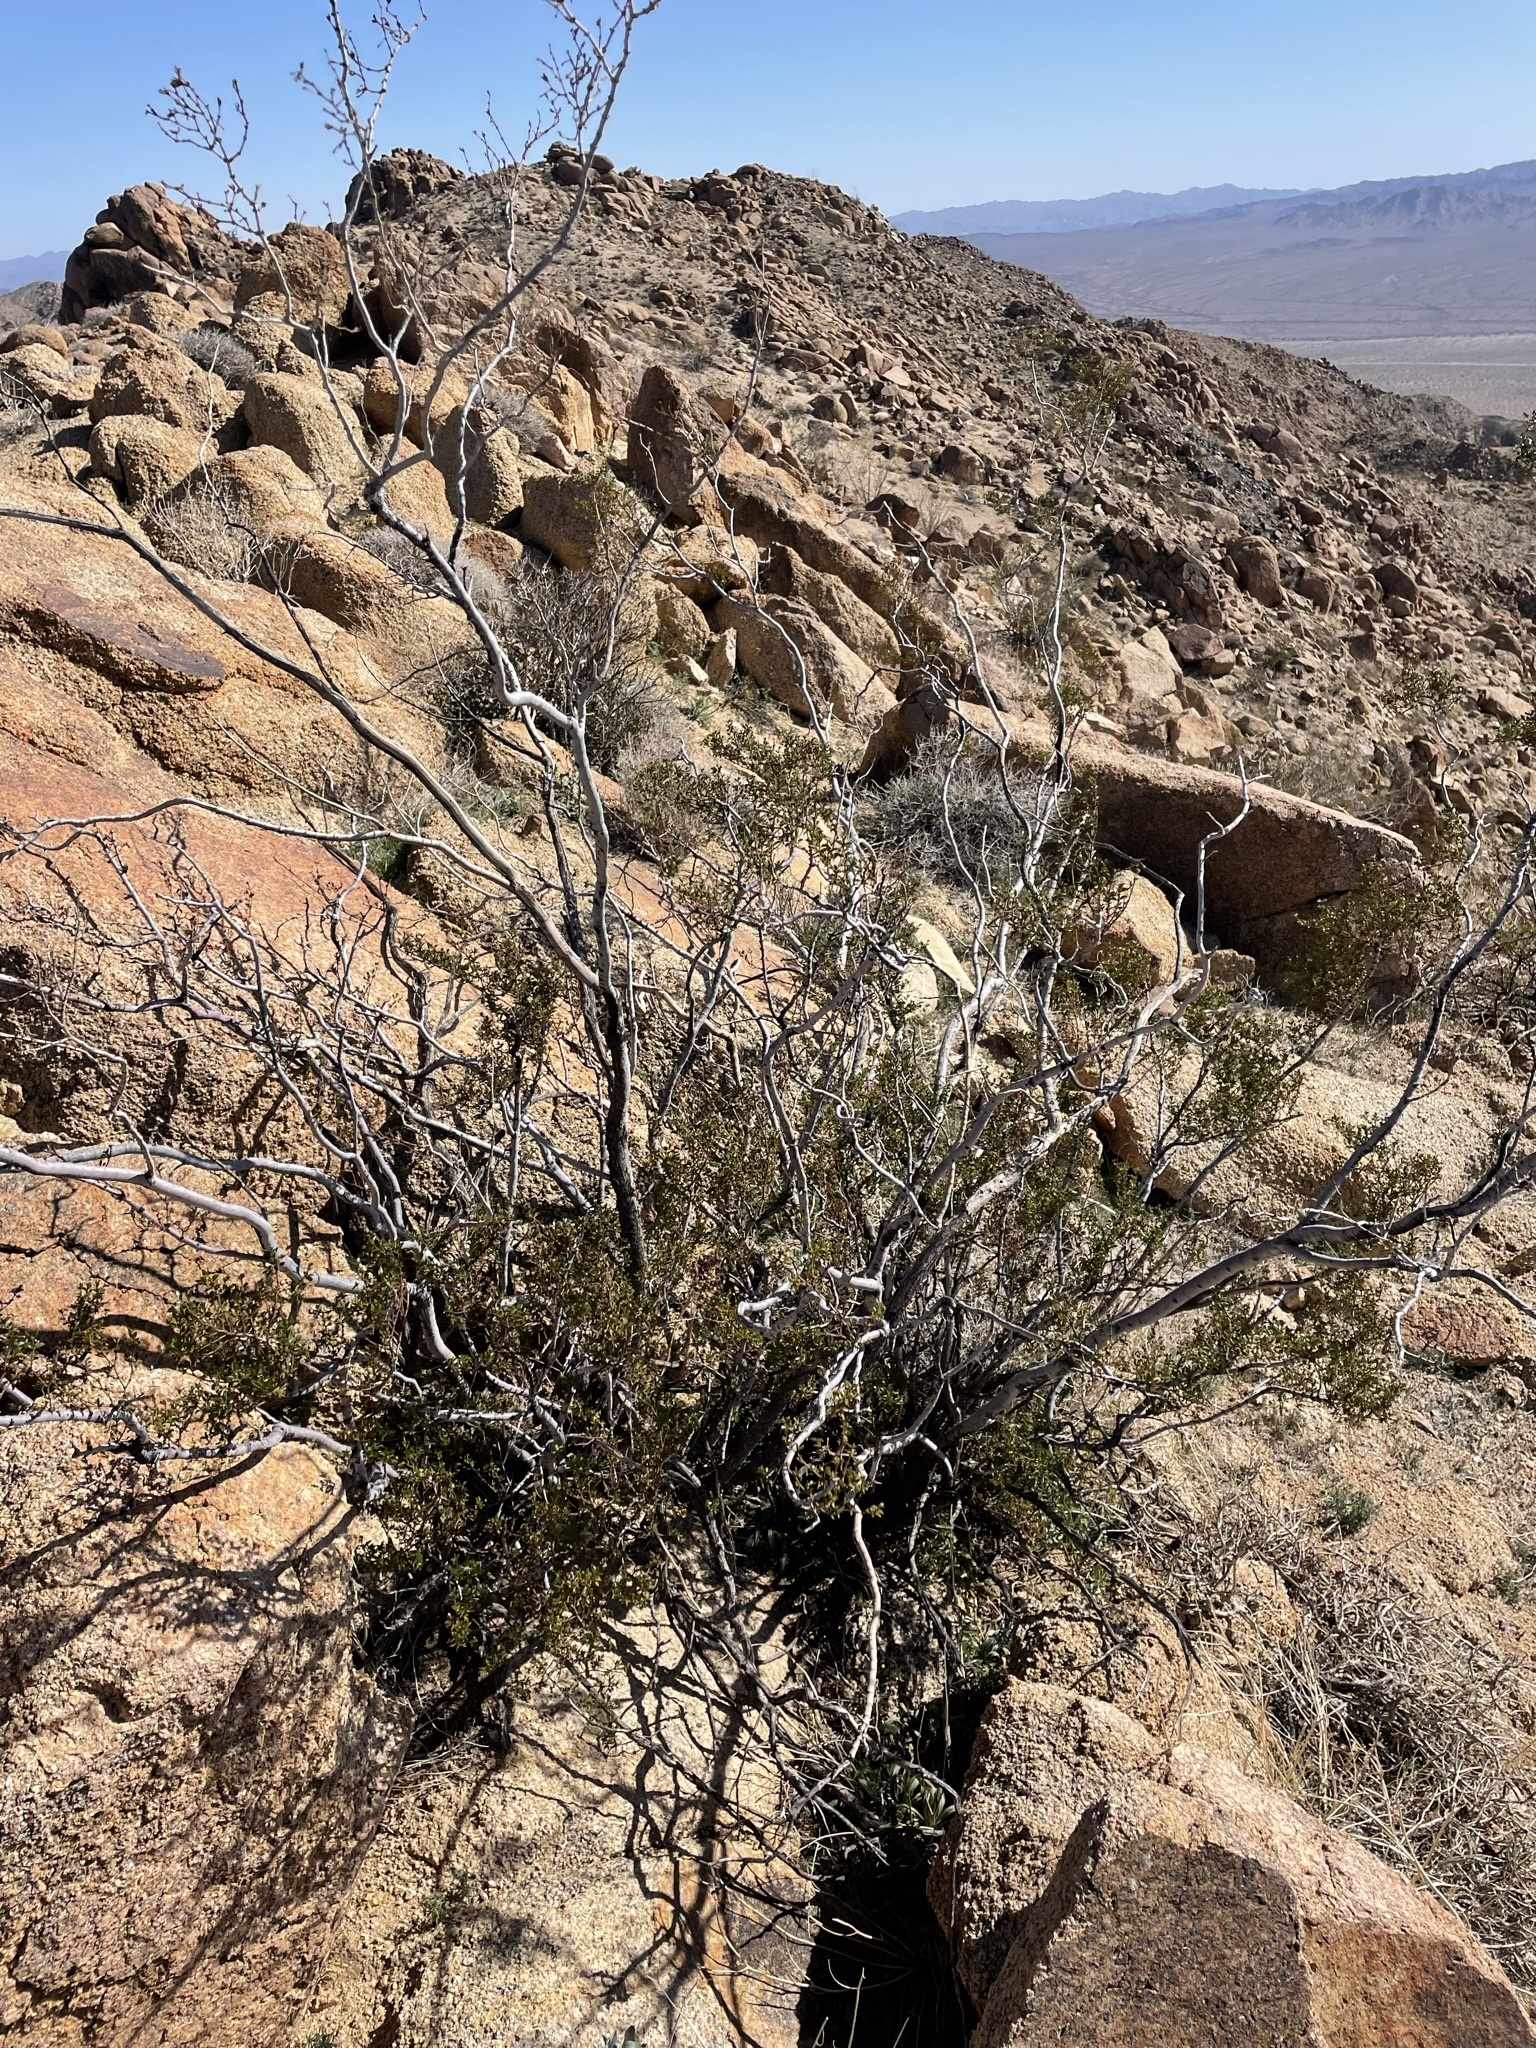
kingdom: Plantae
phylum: Tracheophyta
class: Magnoliopsida
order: Zygophyllales
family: Zygophyllaceae
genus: Larrea
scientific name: Larrea tridentata
